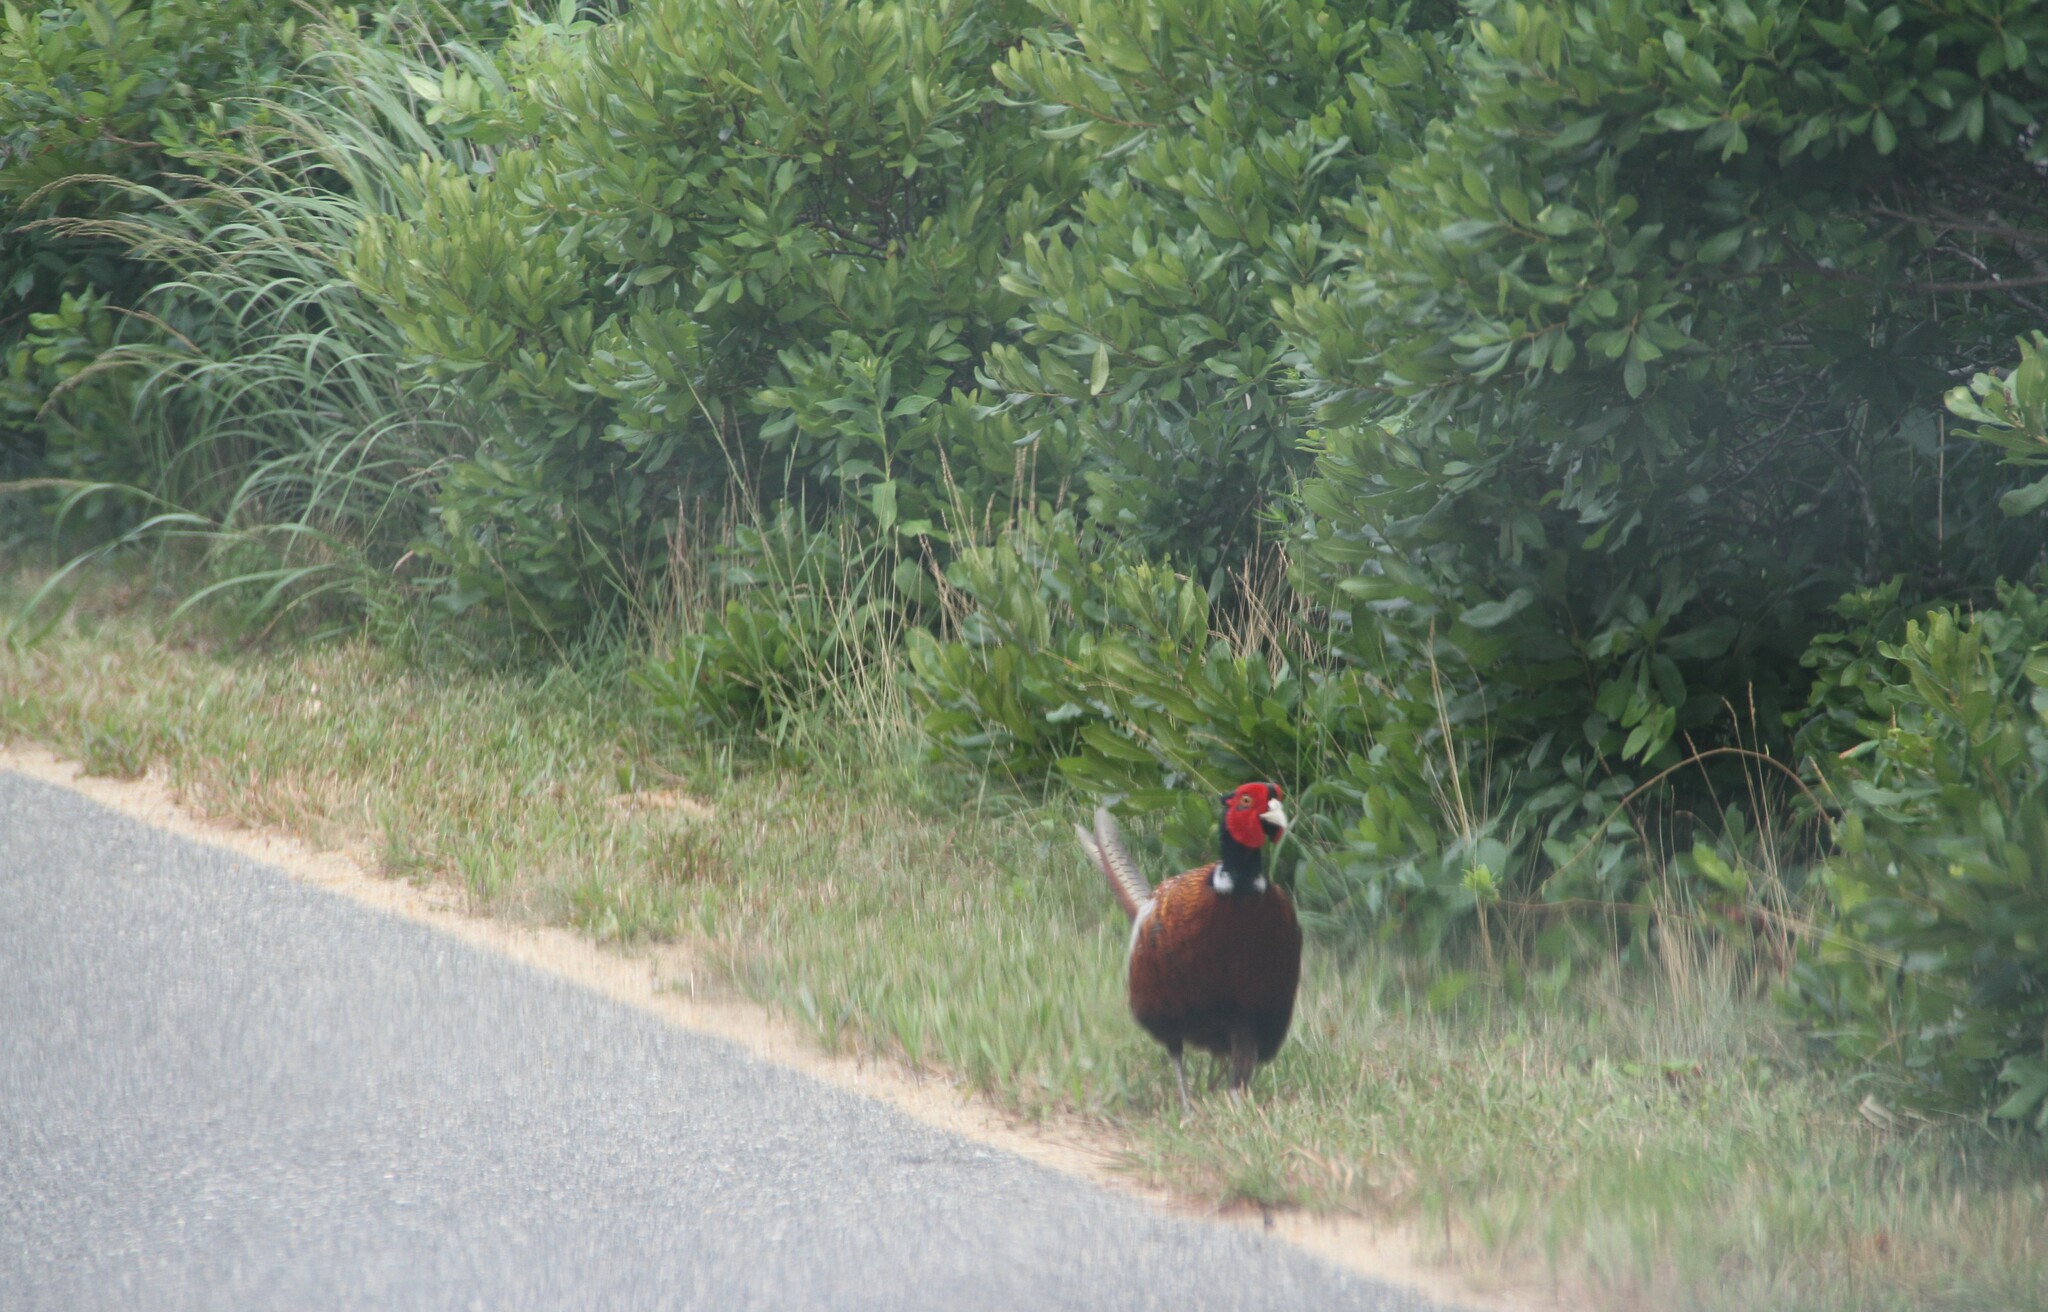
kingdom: Animalia
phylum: Chordata
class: Aves
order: Galliformes
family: Phasianidae
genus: Phasianus
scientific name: Phasianus colchicus
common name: Common pheasant
